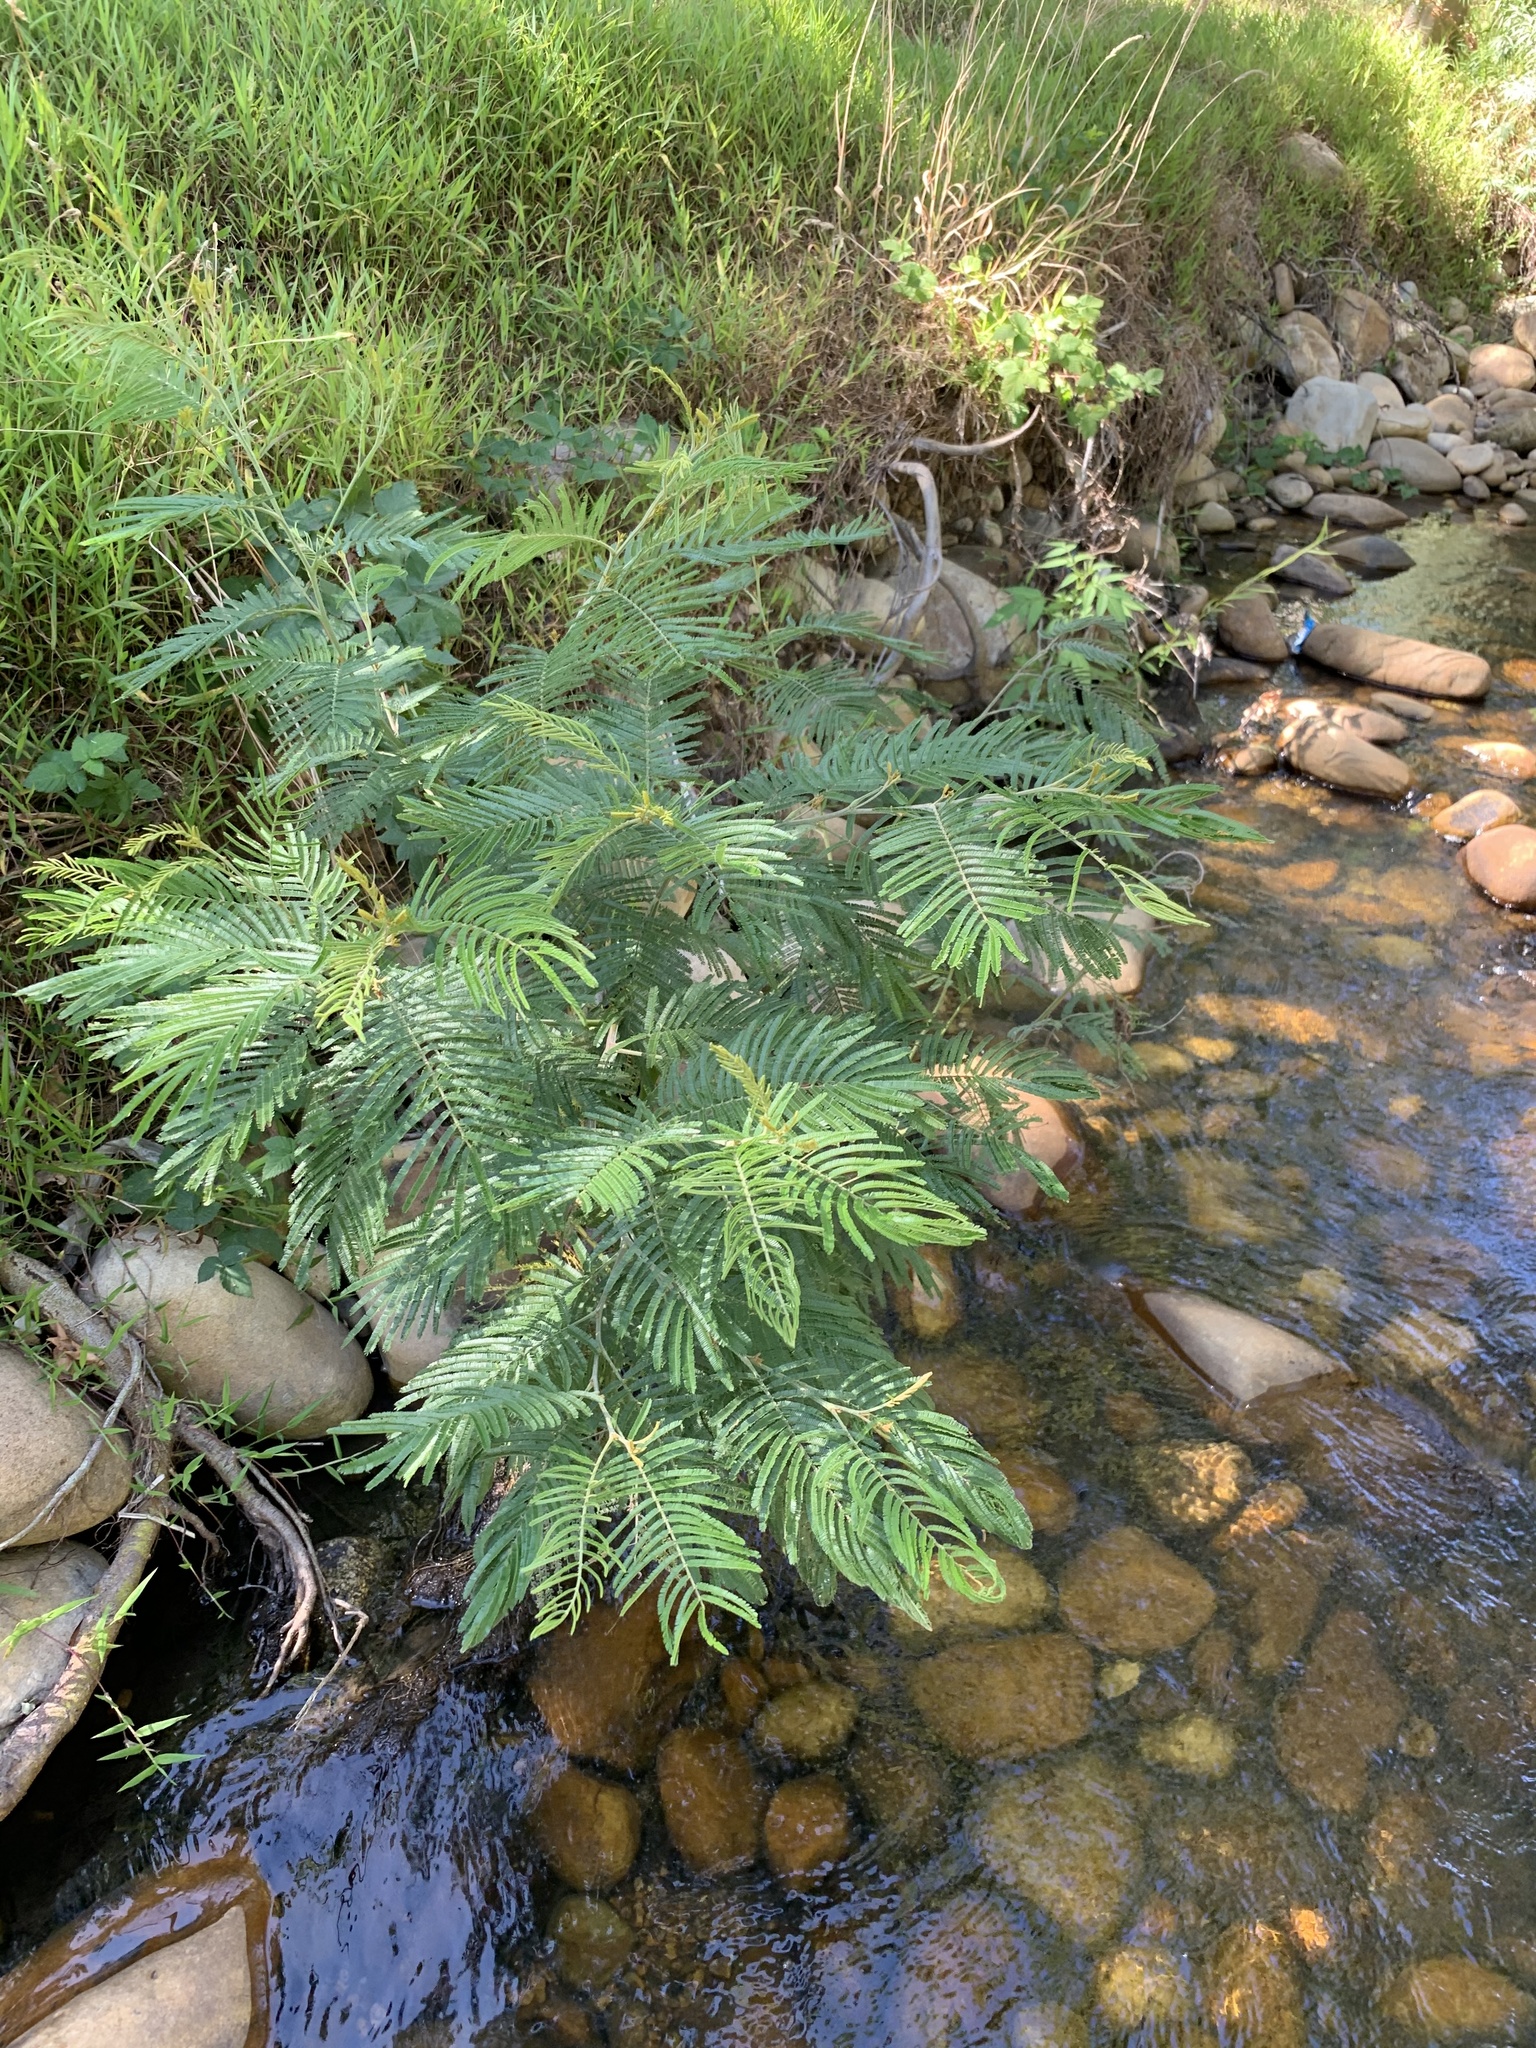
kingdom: Plantae
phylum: Tracheophyta
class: Magnoliopsida
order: Fabales
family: Fabaceae
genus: Acacia
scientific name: Acacia mearnsii
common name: Black wattle
